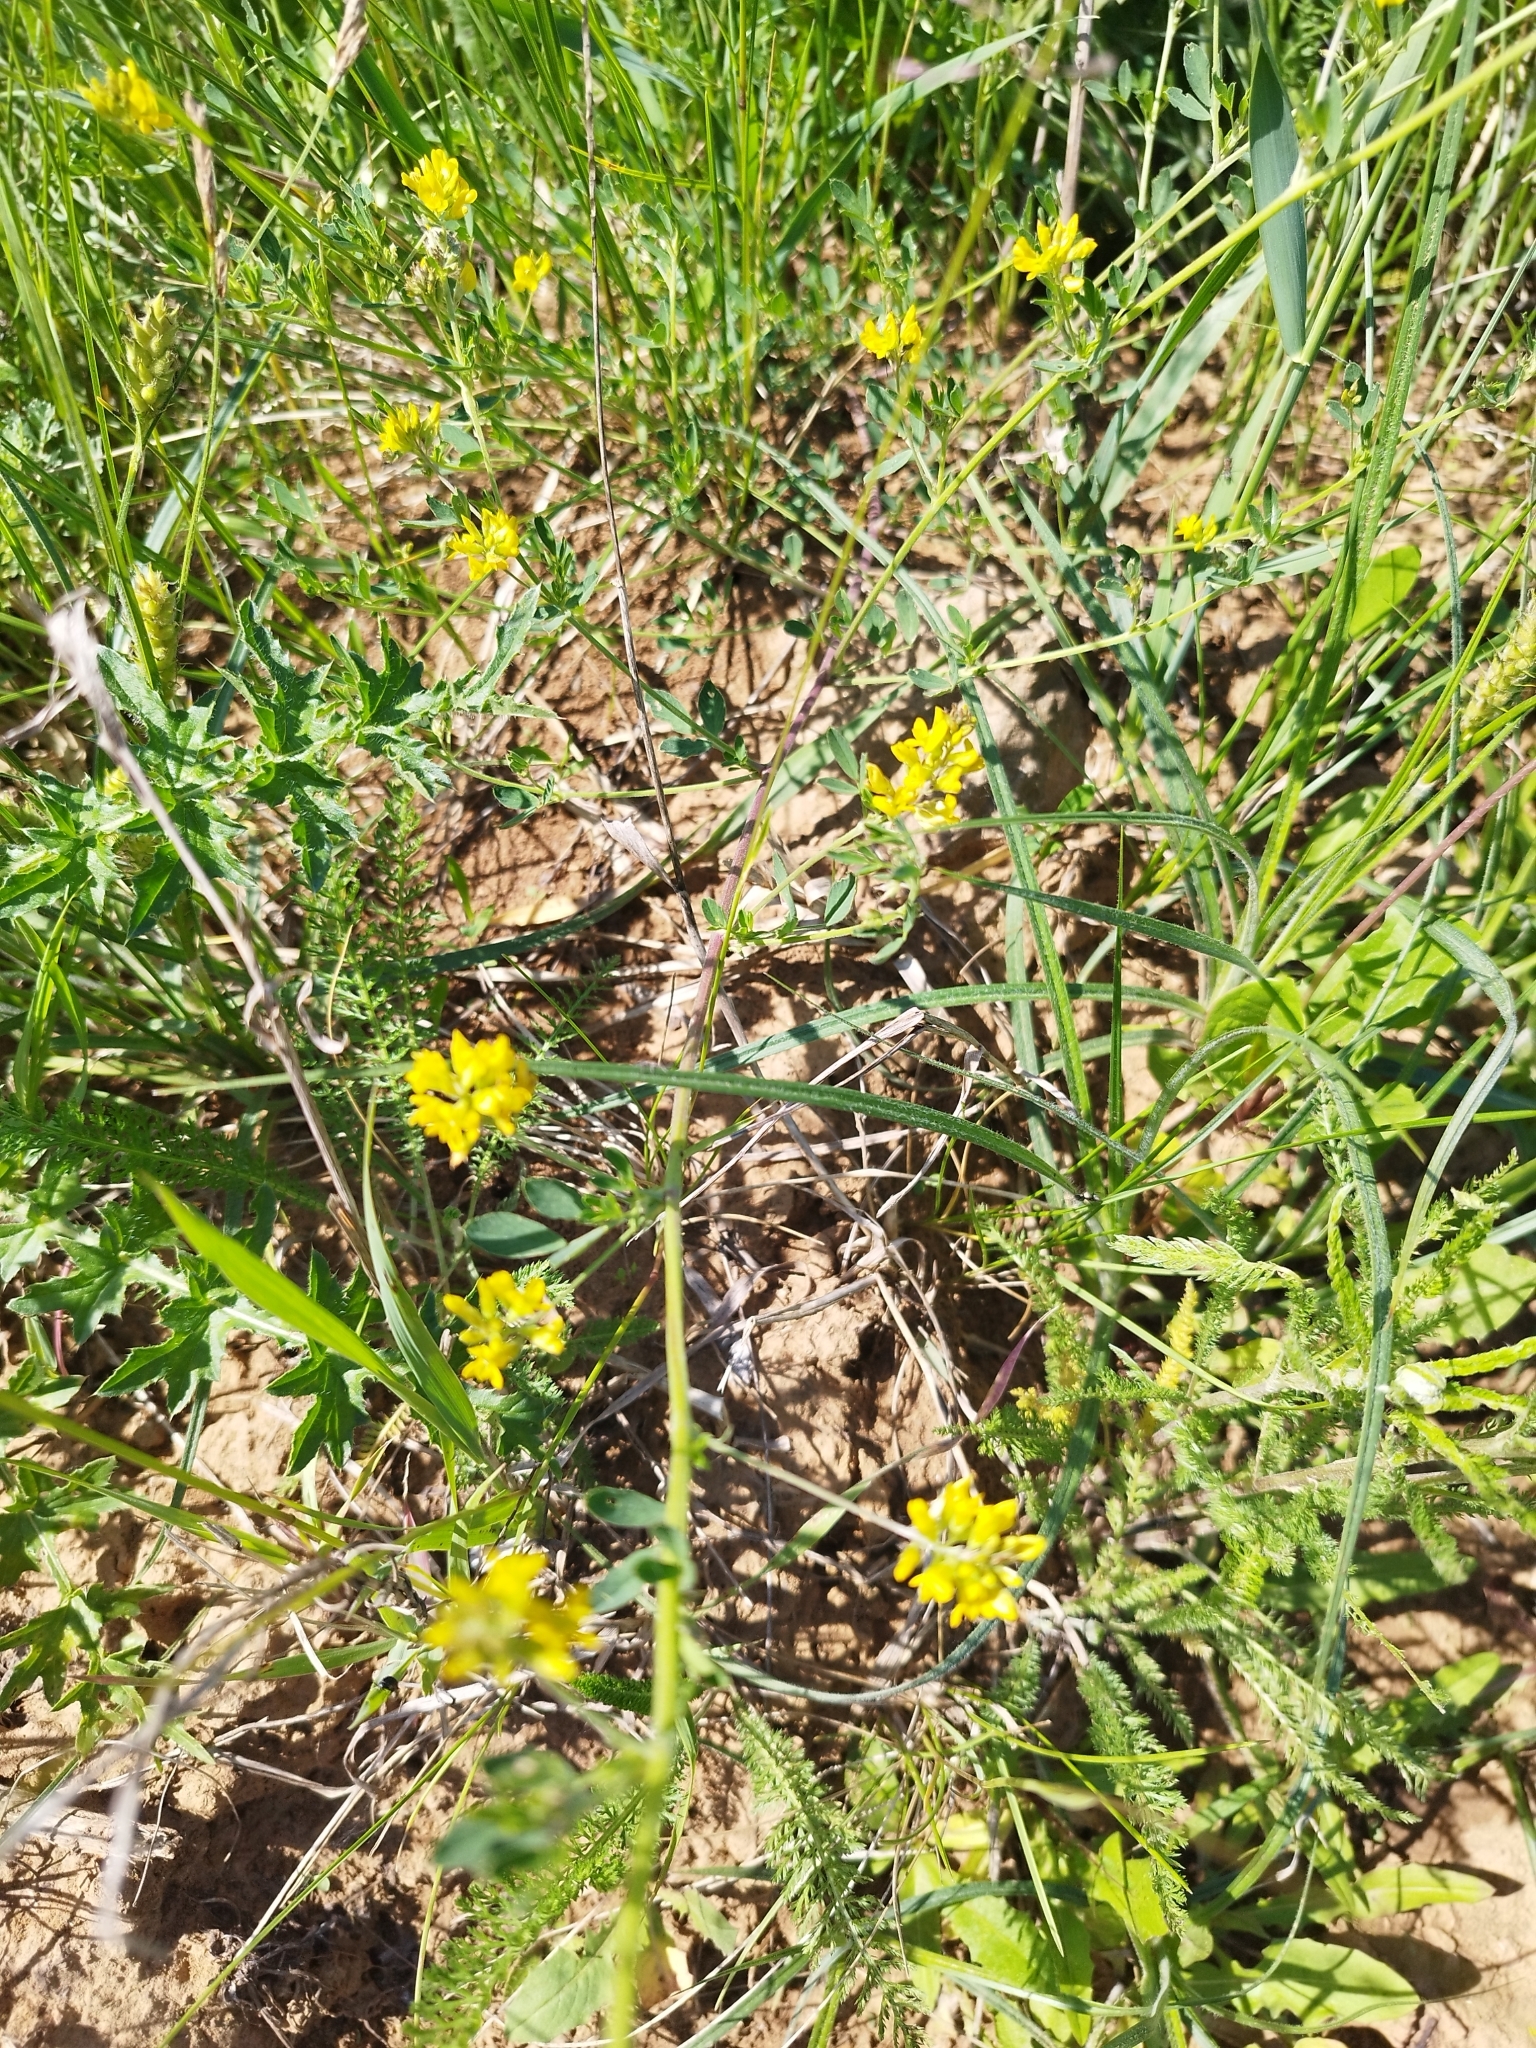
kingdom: Plantae
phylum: Tracheophyta
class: Magnoliopsida
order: Fabales
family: Fabaceae
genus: Medicago
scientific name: Medicago falcata
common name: Sickle medick
